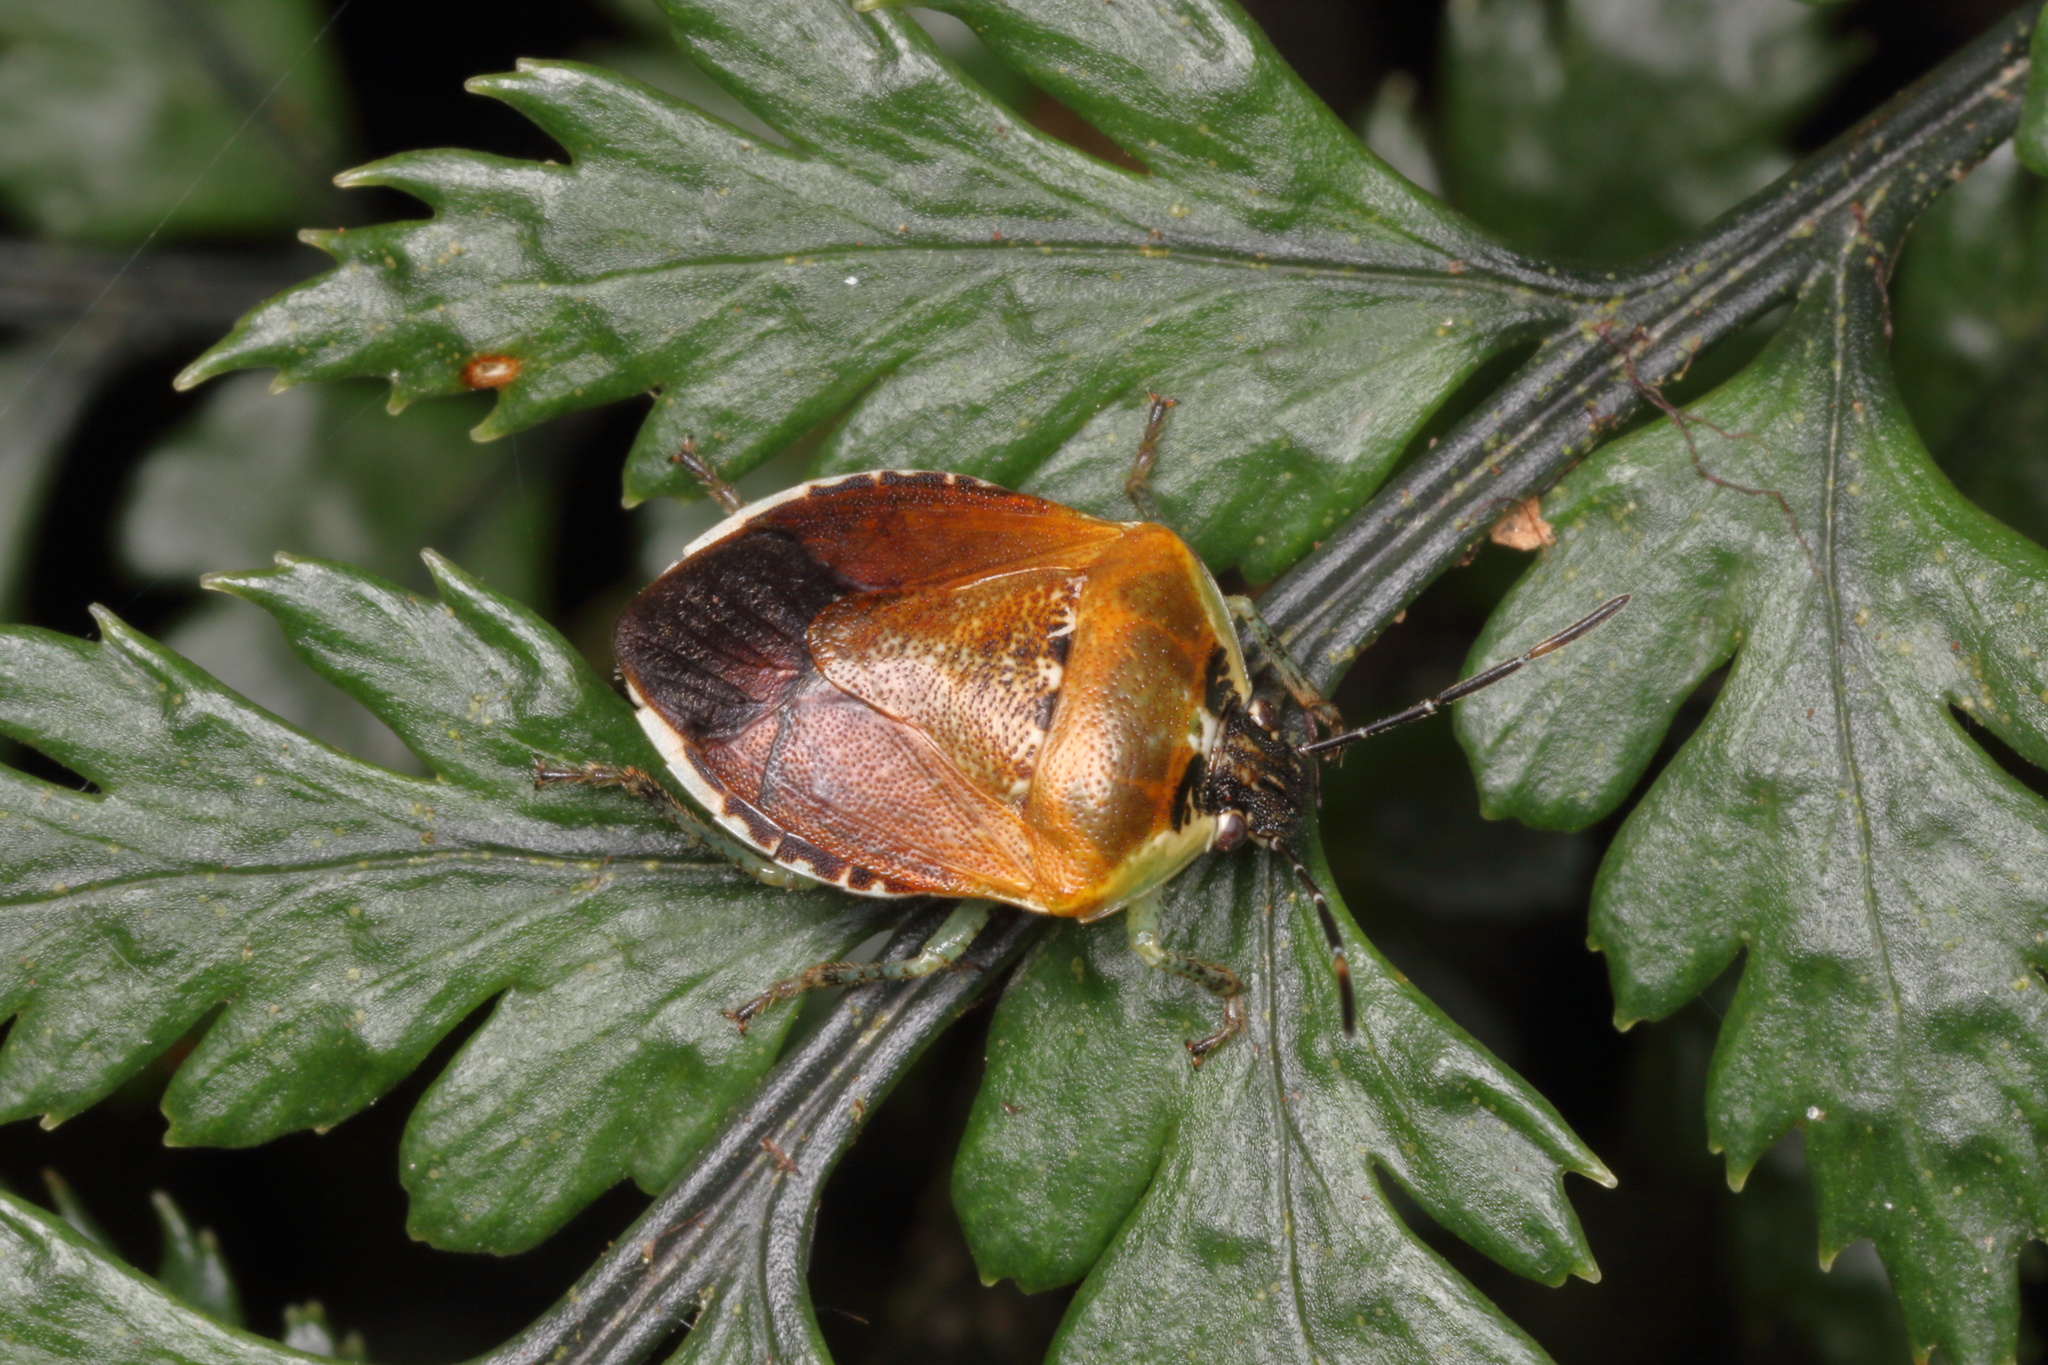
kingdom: Animalia
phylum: Arthropoda
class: Insecta
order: Hemiptera
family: Pentatomidae
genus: Monteithiella
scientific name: Monteithiella
